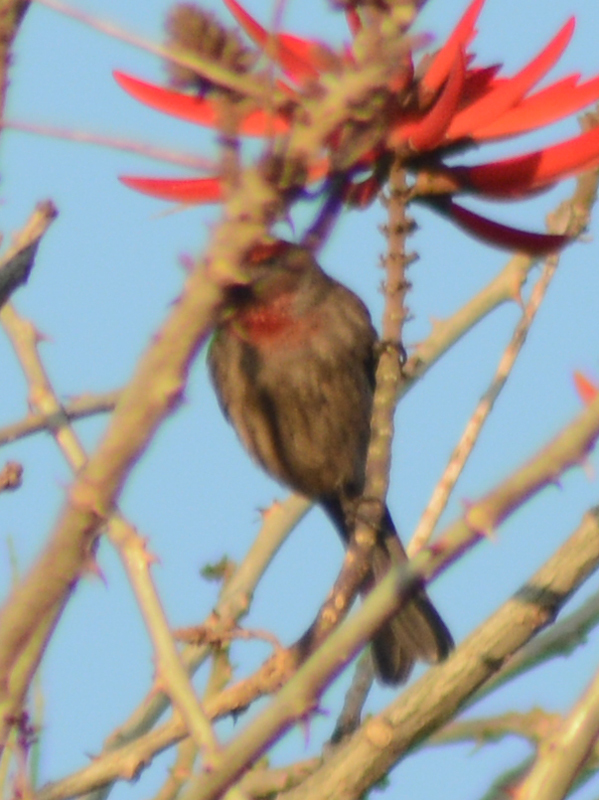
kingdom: Animalia
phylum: Chordata
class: Aves
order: Passeriformes
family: Fringillidae
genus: Haemorhous
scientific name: Haemorhous mexicanus
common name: House finch
